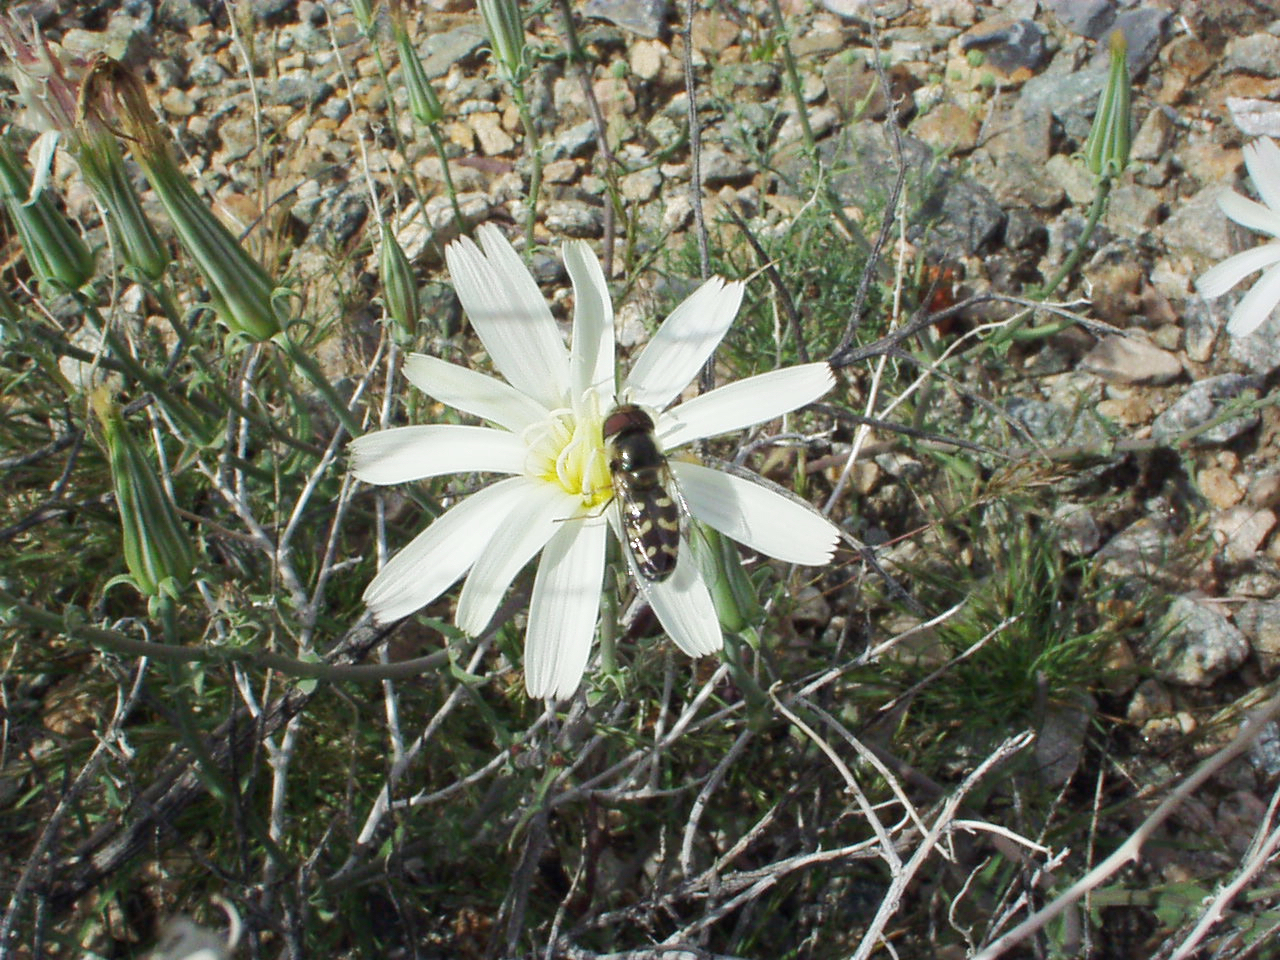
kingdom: Plantae
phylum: Tracheophyta
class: Magnoliopsida
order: Asterales
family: Asteraceae
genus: Rafinesquia
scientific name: Rafinesquia neomexicana
